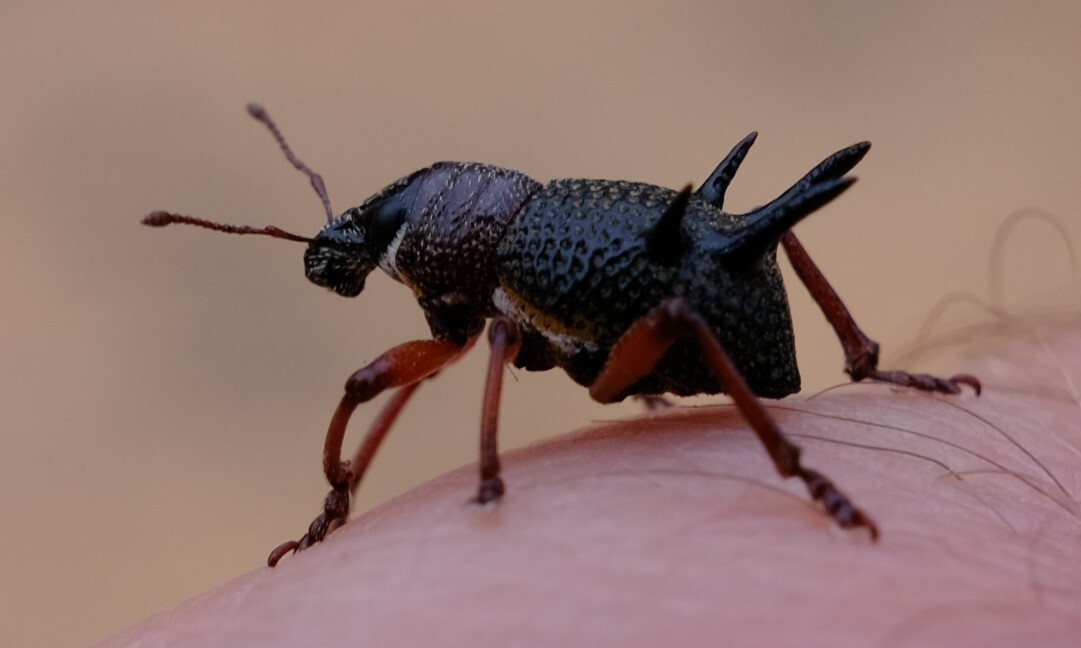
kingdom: Animalia
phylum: Arthropoda
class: Insecta
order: Coleoptera
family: Curculionidae
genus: Catasarcus
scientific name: Catasarcus albipectus
